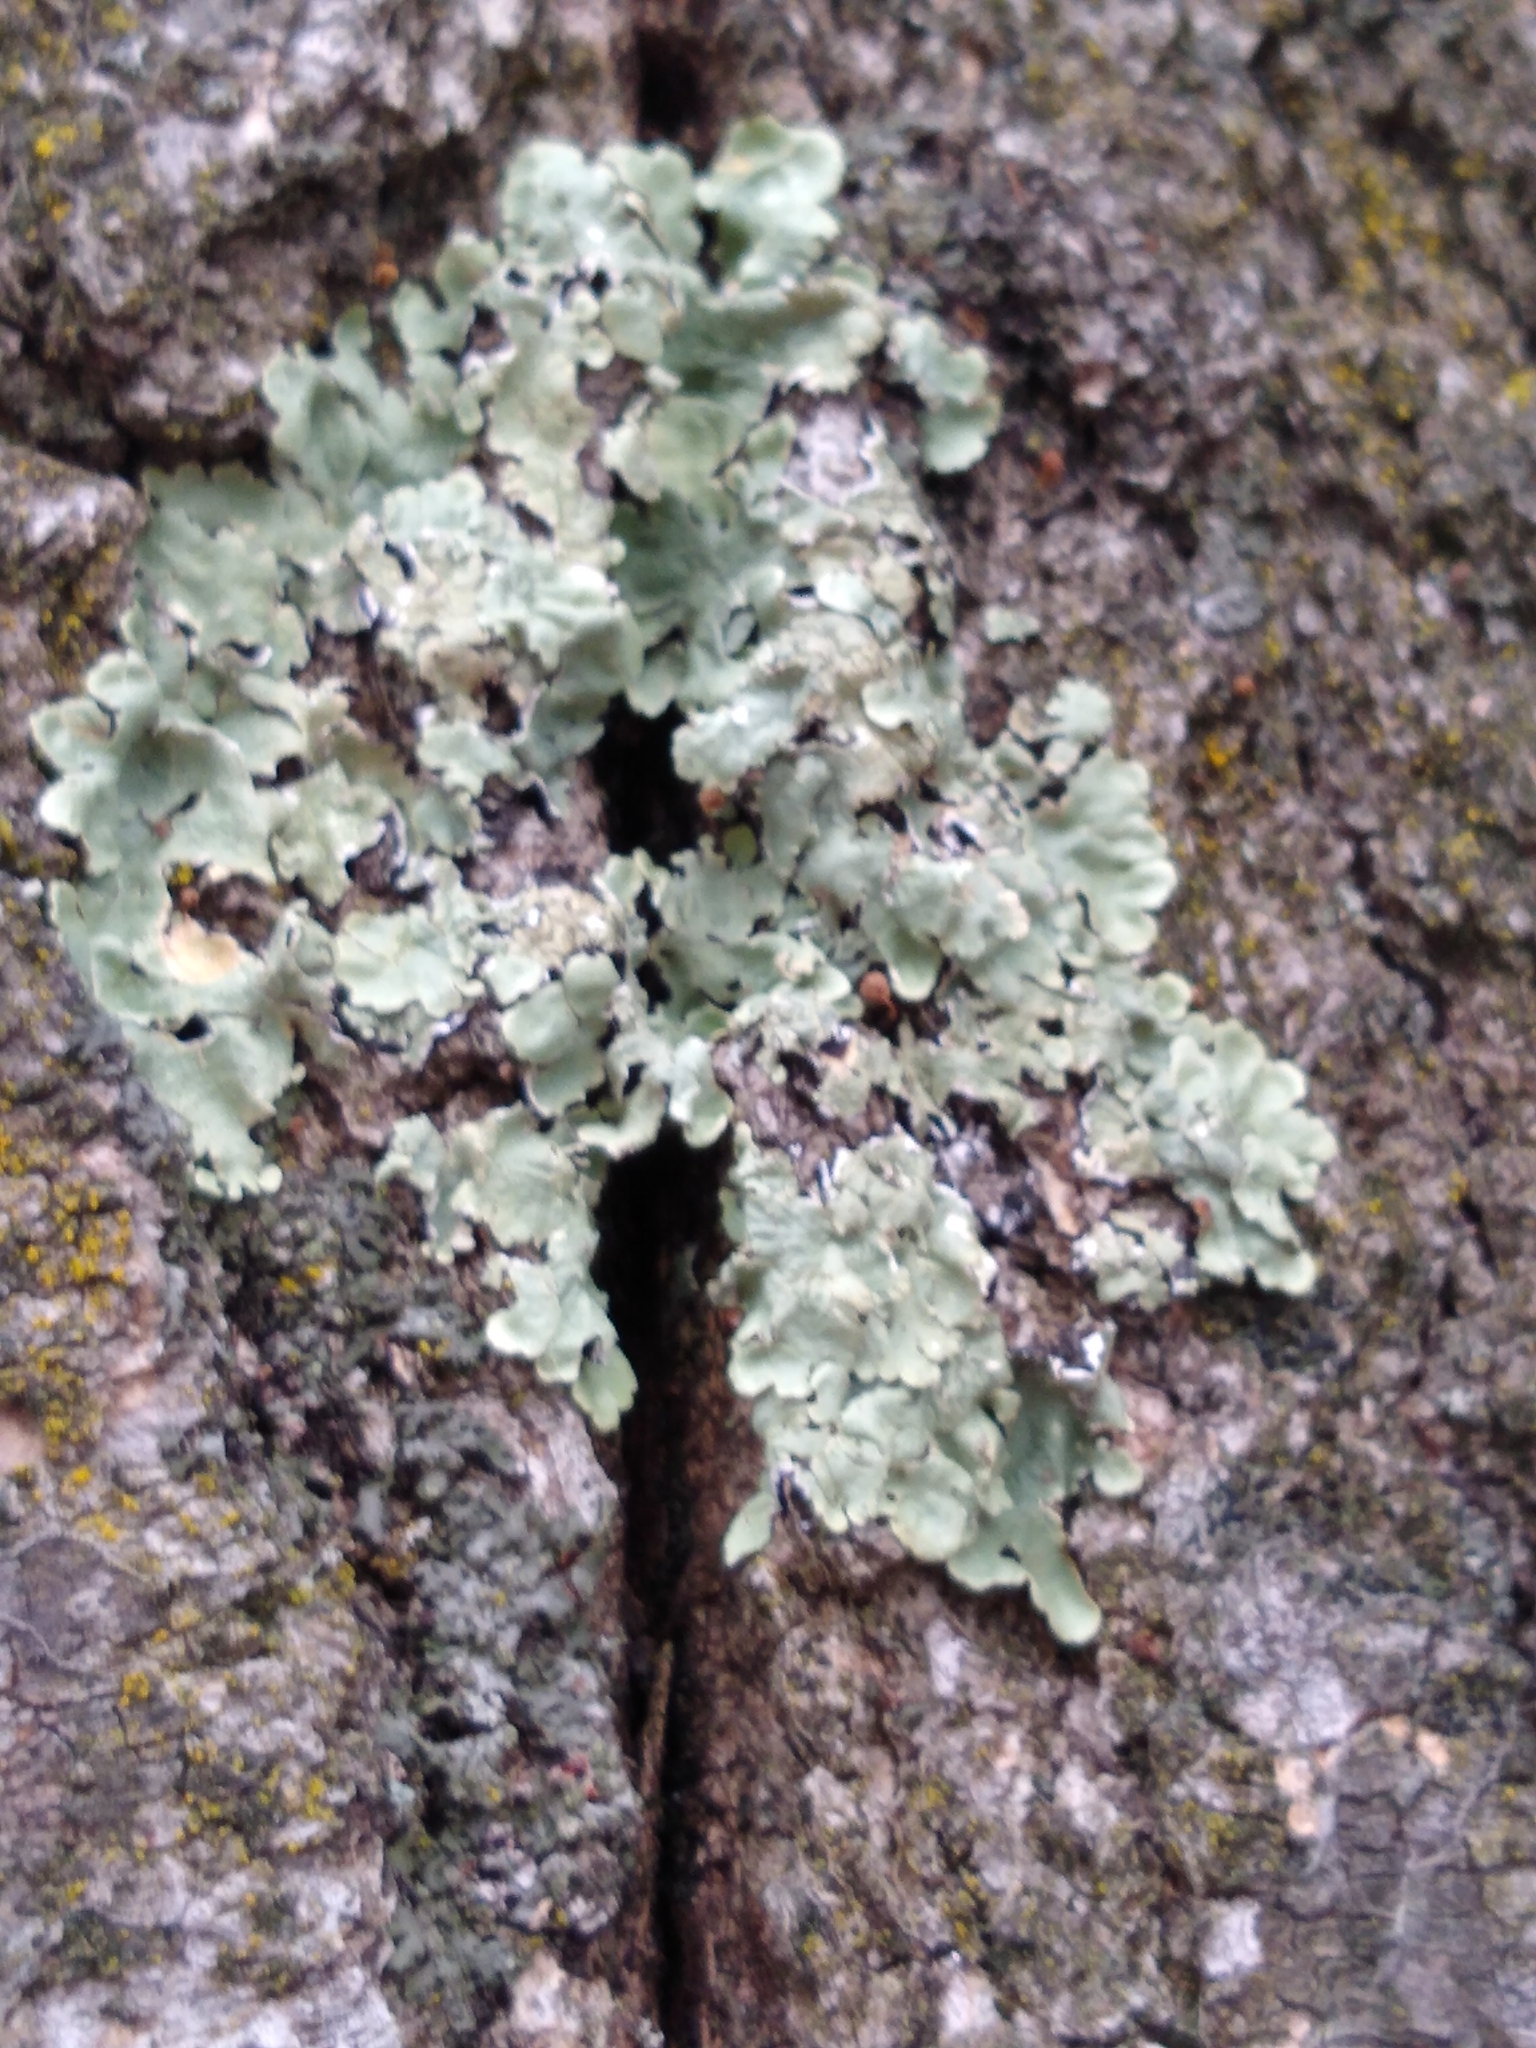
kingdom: Fungi
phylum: Ascomycota
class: Lecanoromycetes
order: Lecanorales
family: Parmeliaceae
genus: Flavoparmelia
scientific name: Flavoparmelia caperata
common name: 40-mile per hour lichen
